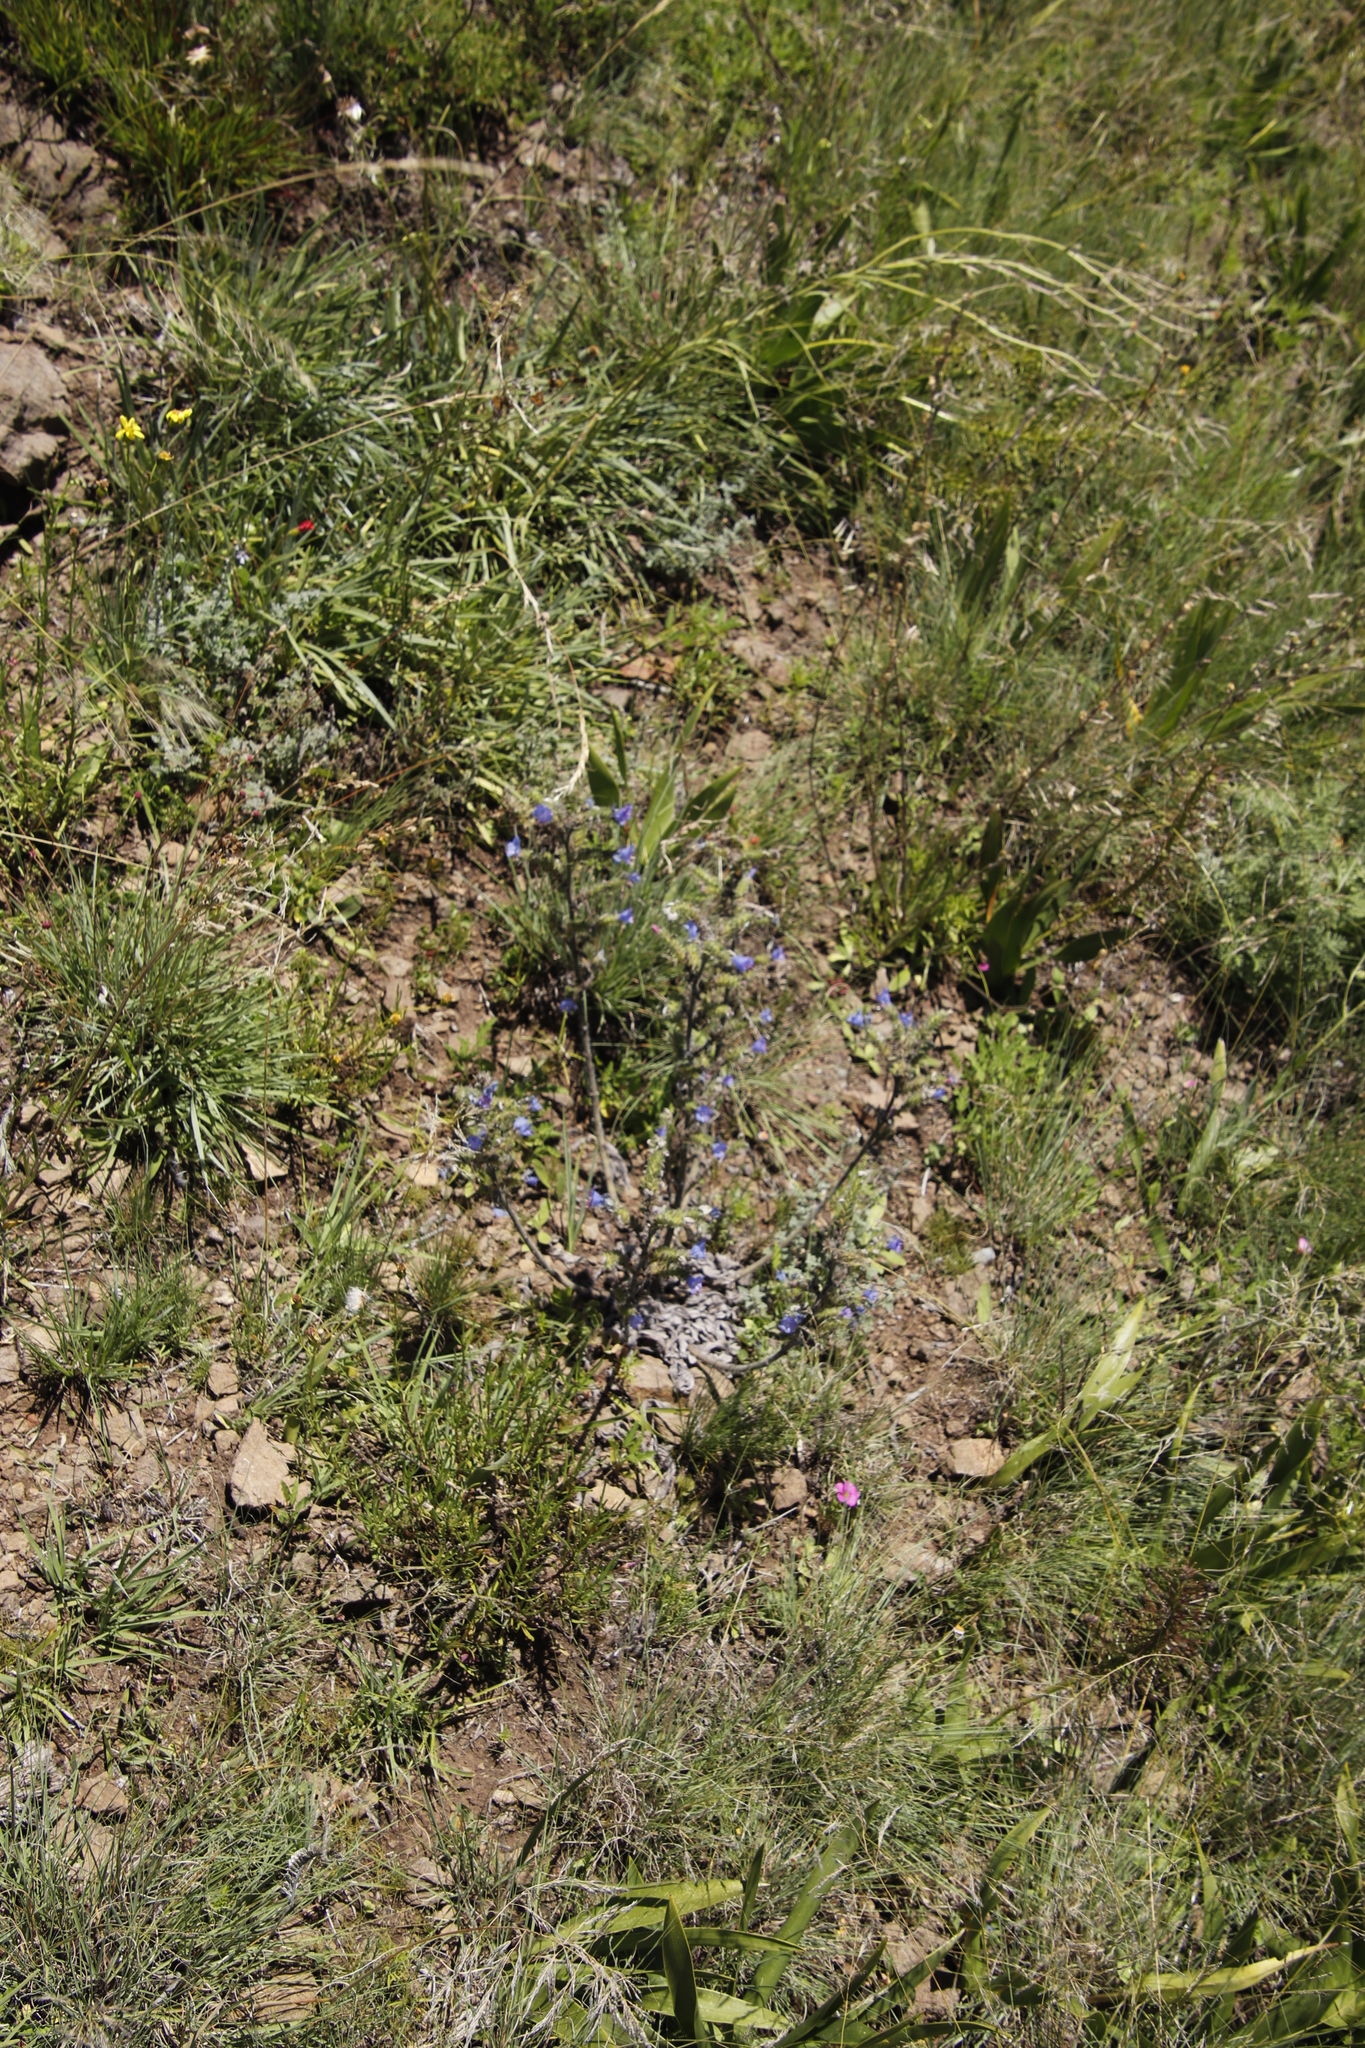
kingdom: Plantae
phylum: Tracheophyta
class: Magnoliopsida
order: Boraginales
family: Boraginaceae
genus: Echium
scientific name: Echium vulgare
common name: Common viper's bugloss
